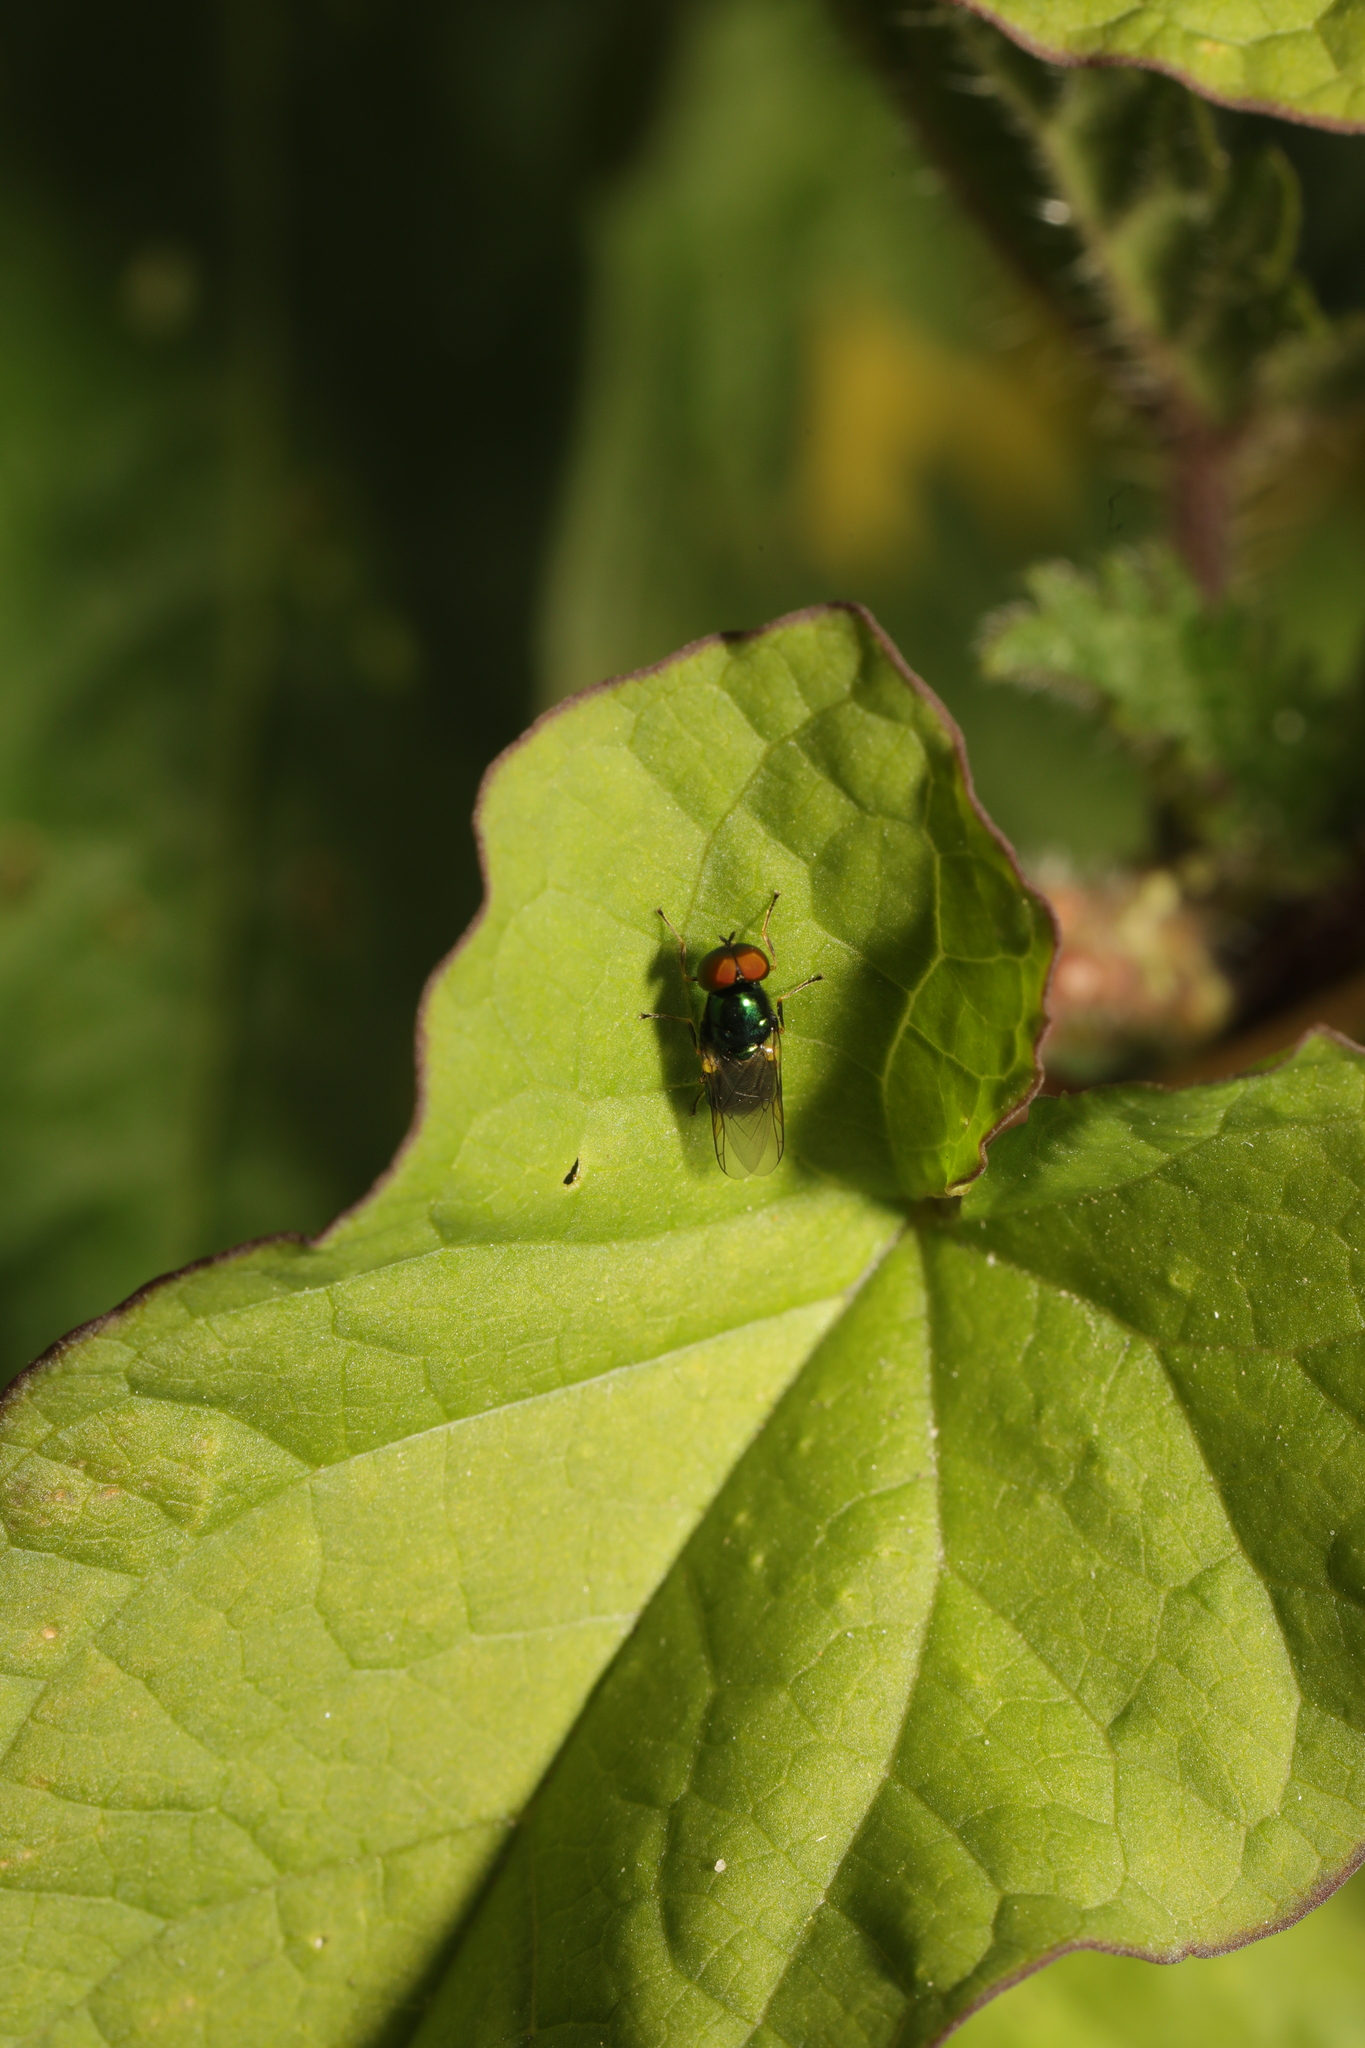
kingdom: Animalia
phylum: Arthropoda
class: Insecta
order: Diptera
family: Stratiomyidae
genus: Microchrysa
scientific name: Microchrysa polita
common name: Black-horned gem
